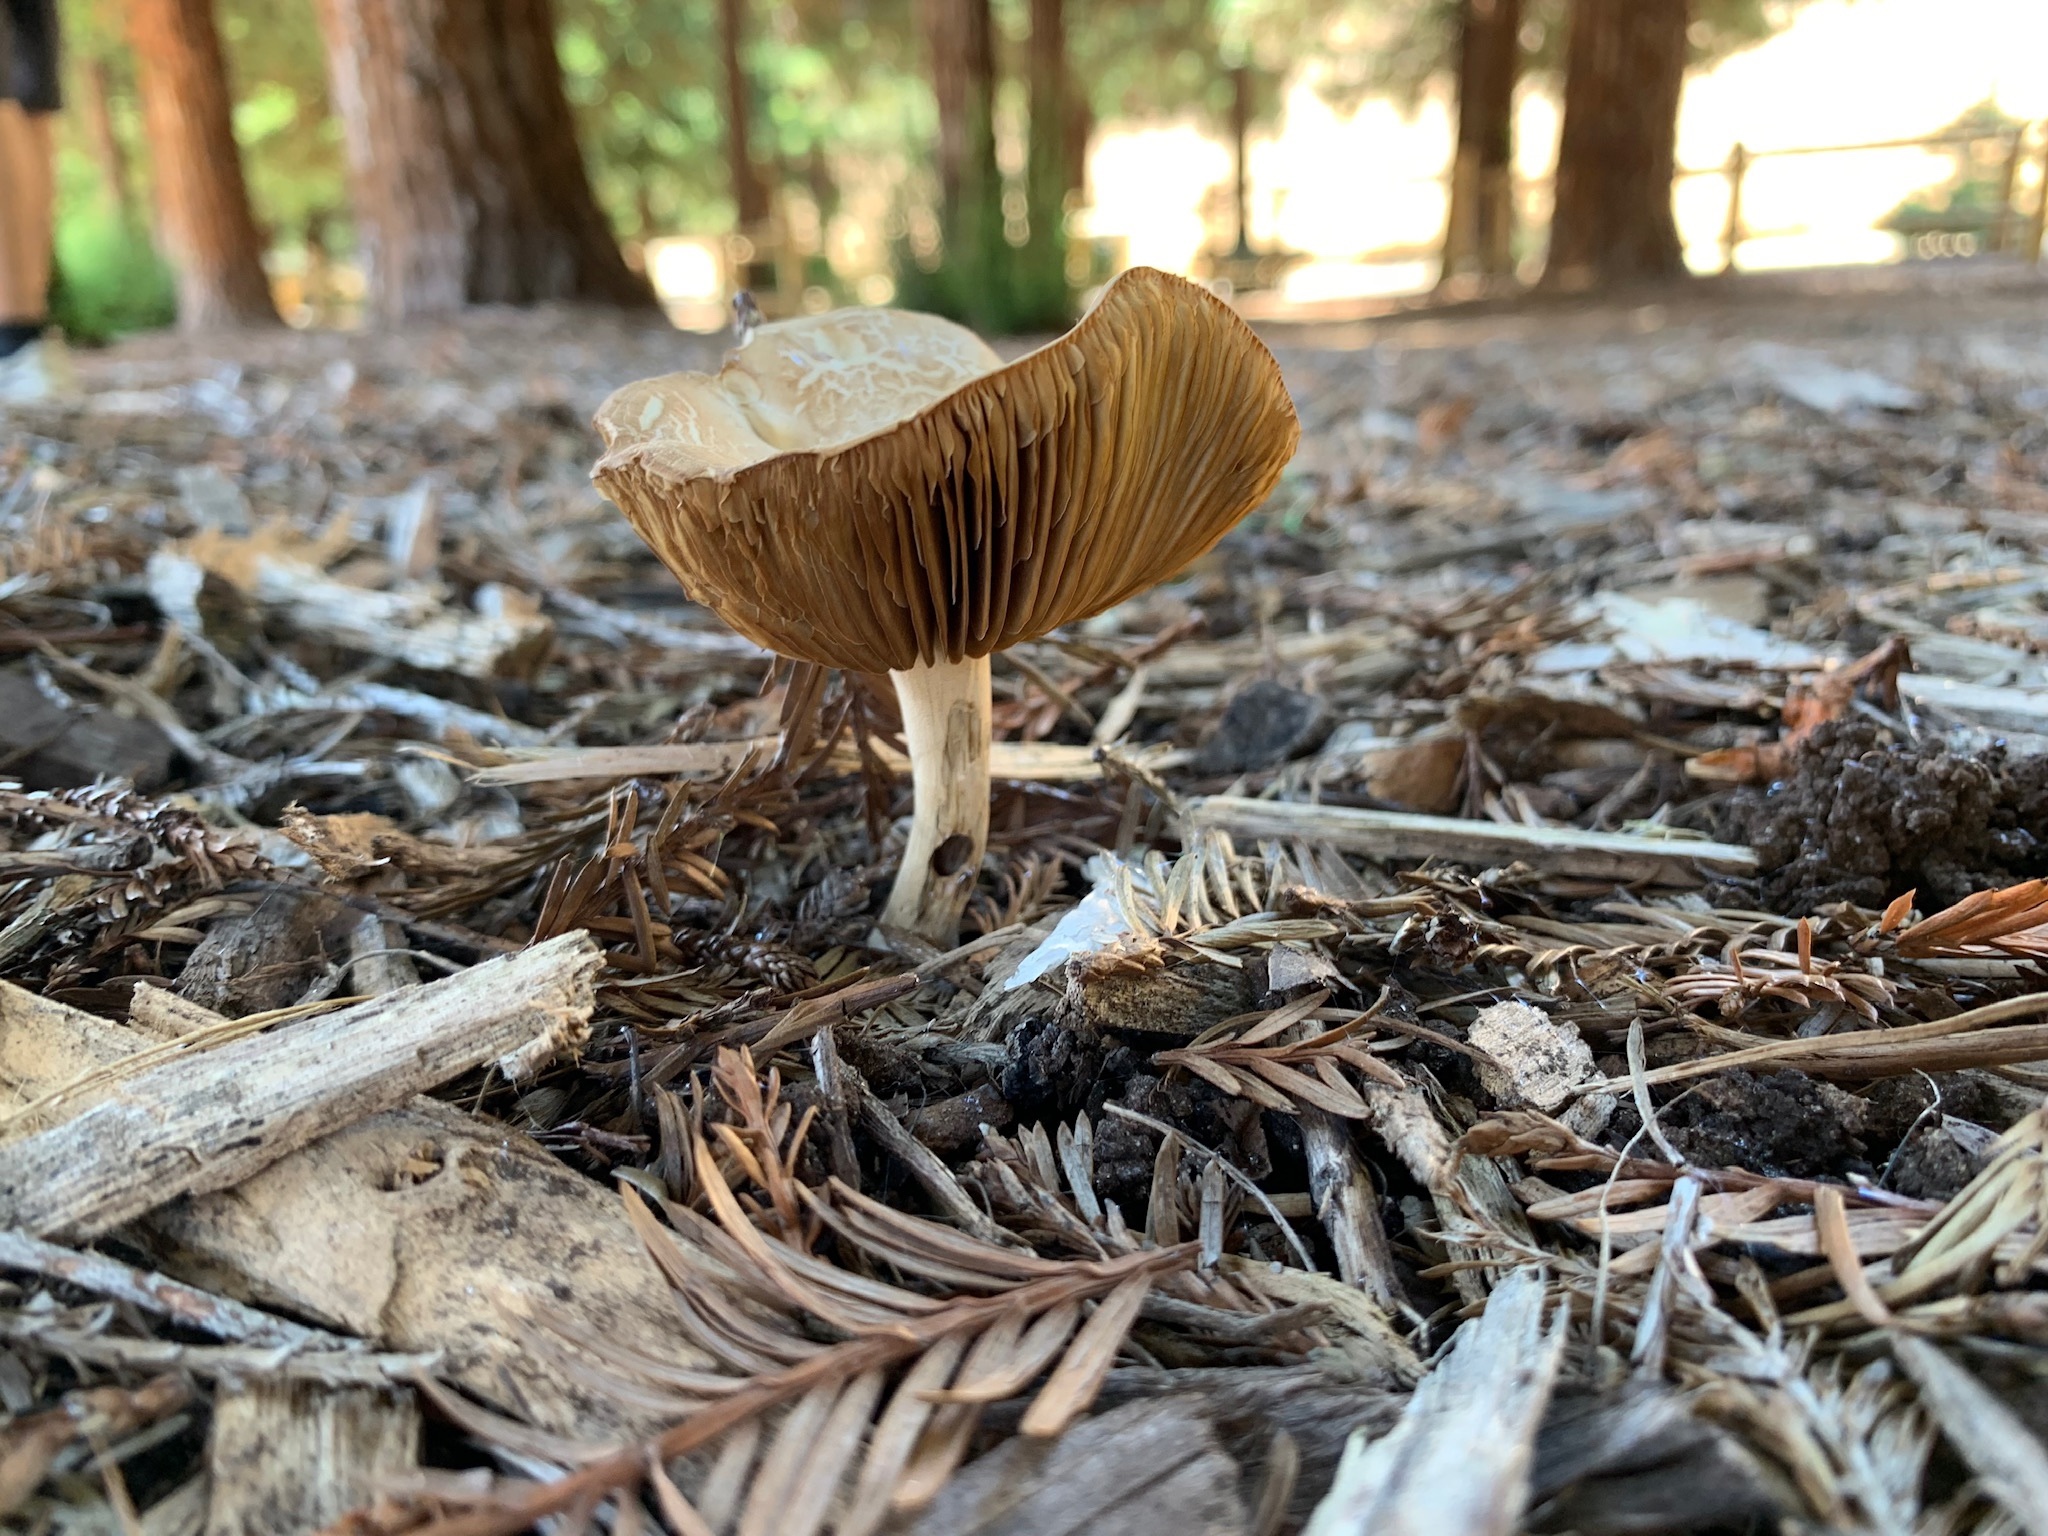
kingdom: Fungi
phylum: Basidiomycota
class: Agaricomycetes
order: Agaricales
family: Strophariaceae
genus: Agrocybe
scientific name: Agrocybe putaminum
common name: Mulch fieldcap
